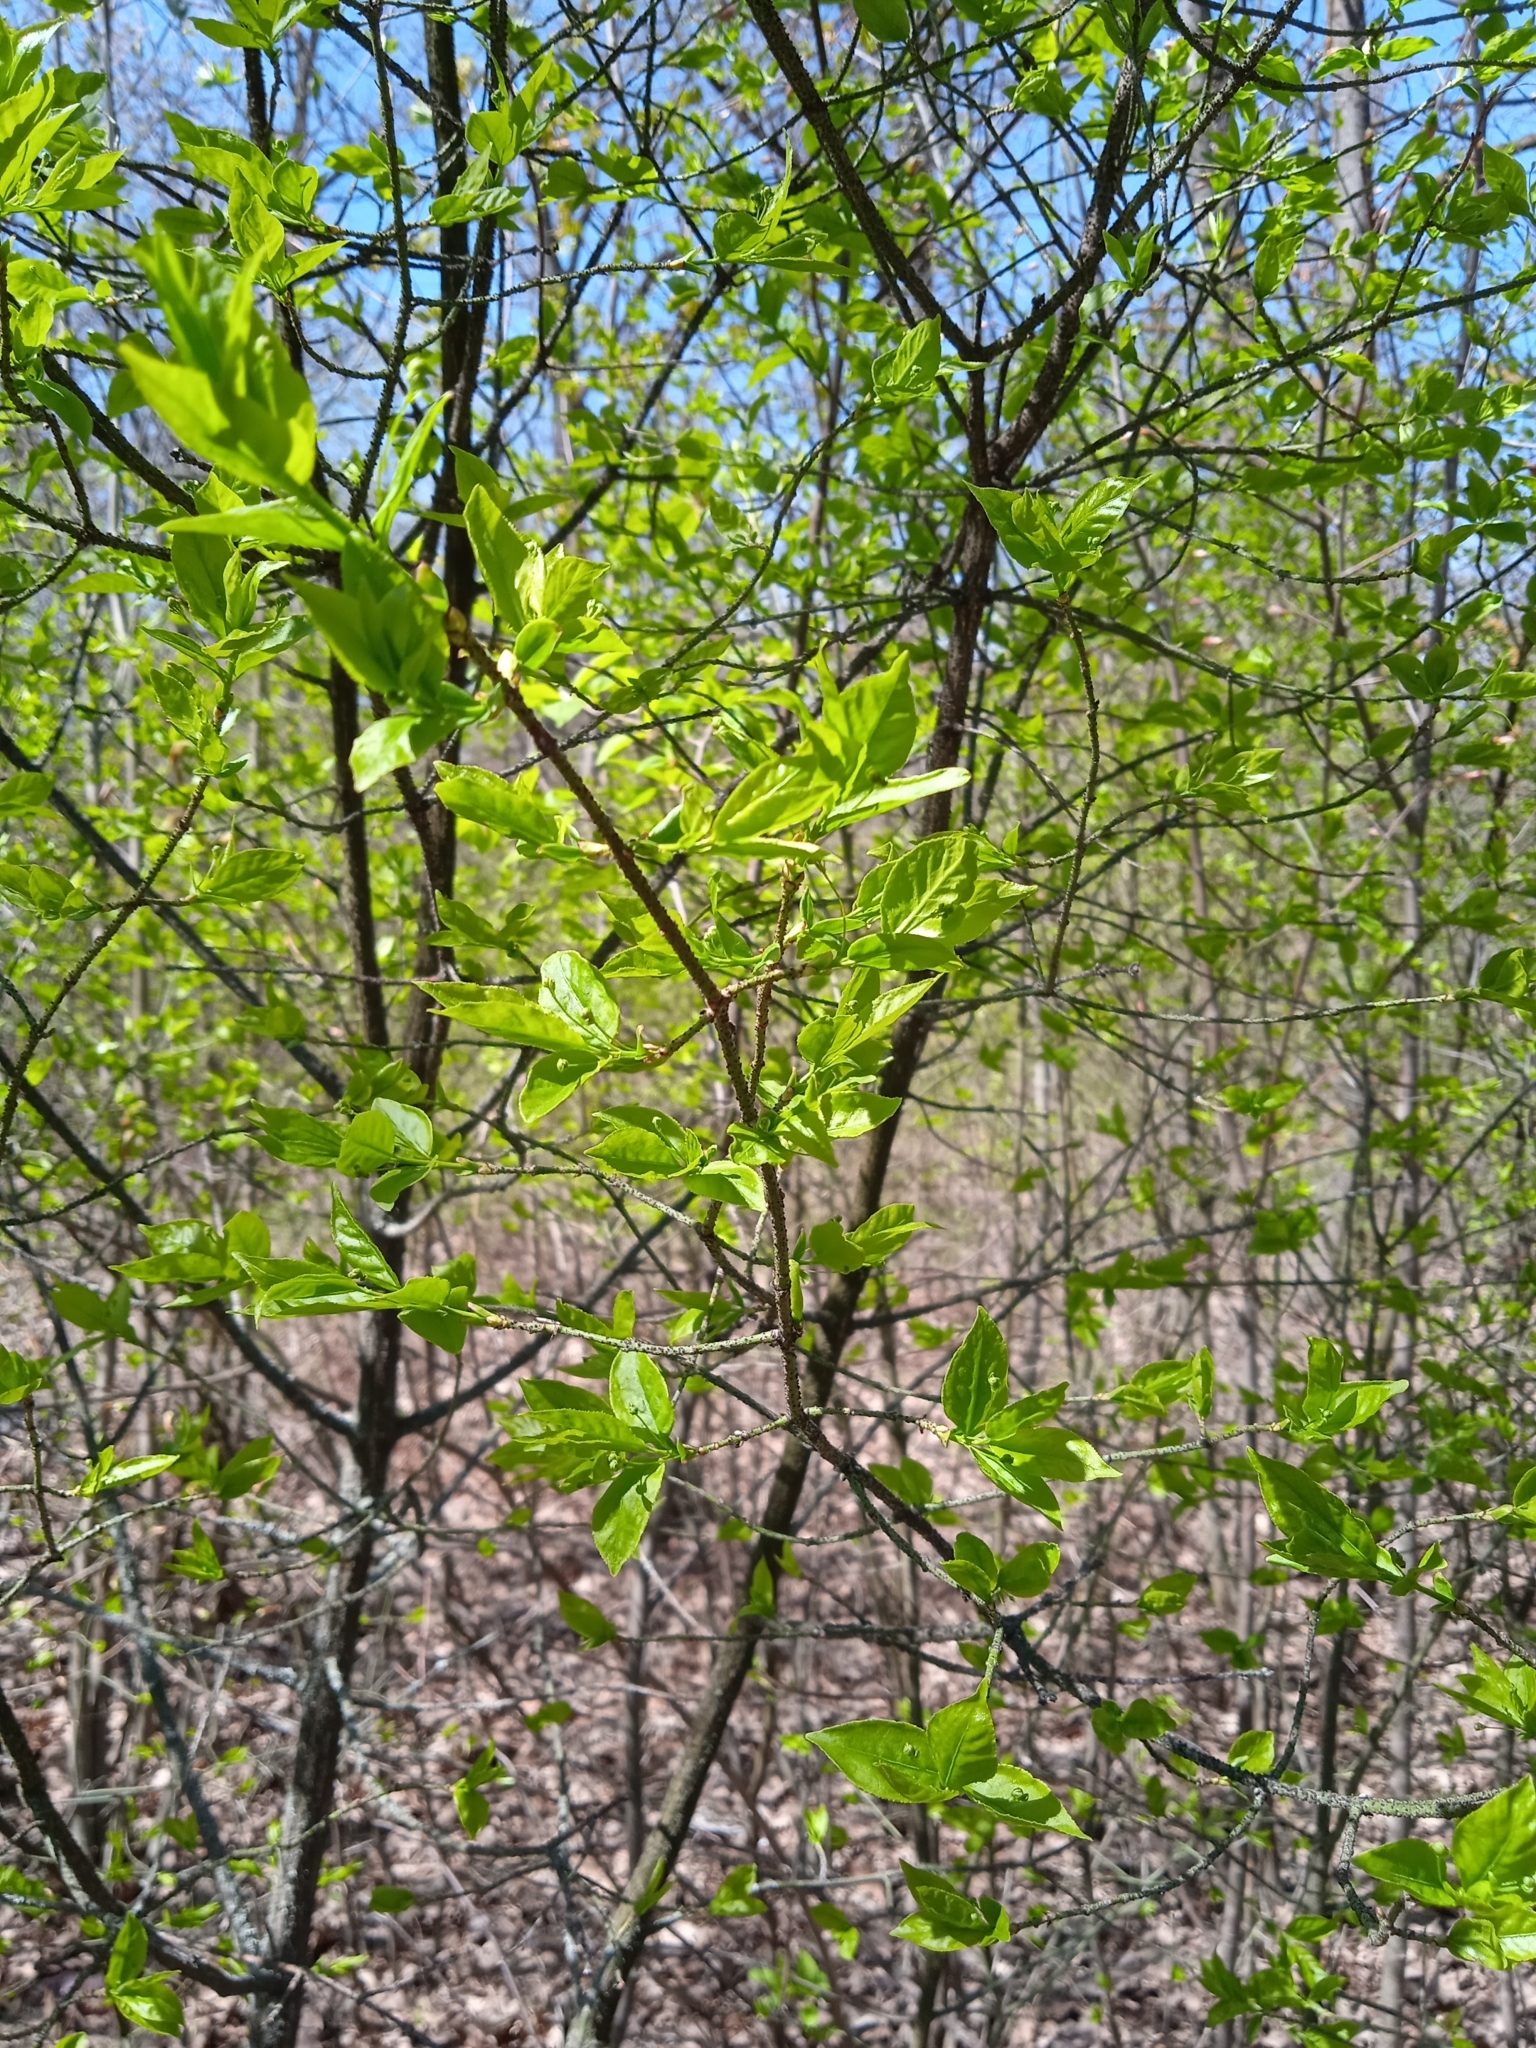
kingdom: Plantae
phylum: Tracheophyta
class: Magnoliopsida
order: Celastrales
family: Celastraceae
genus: Euonymus
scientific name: Euonymus verrucosus
